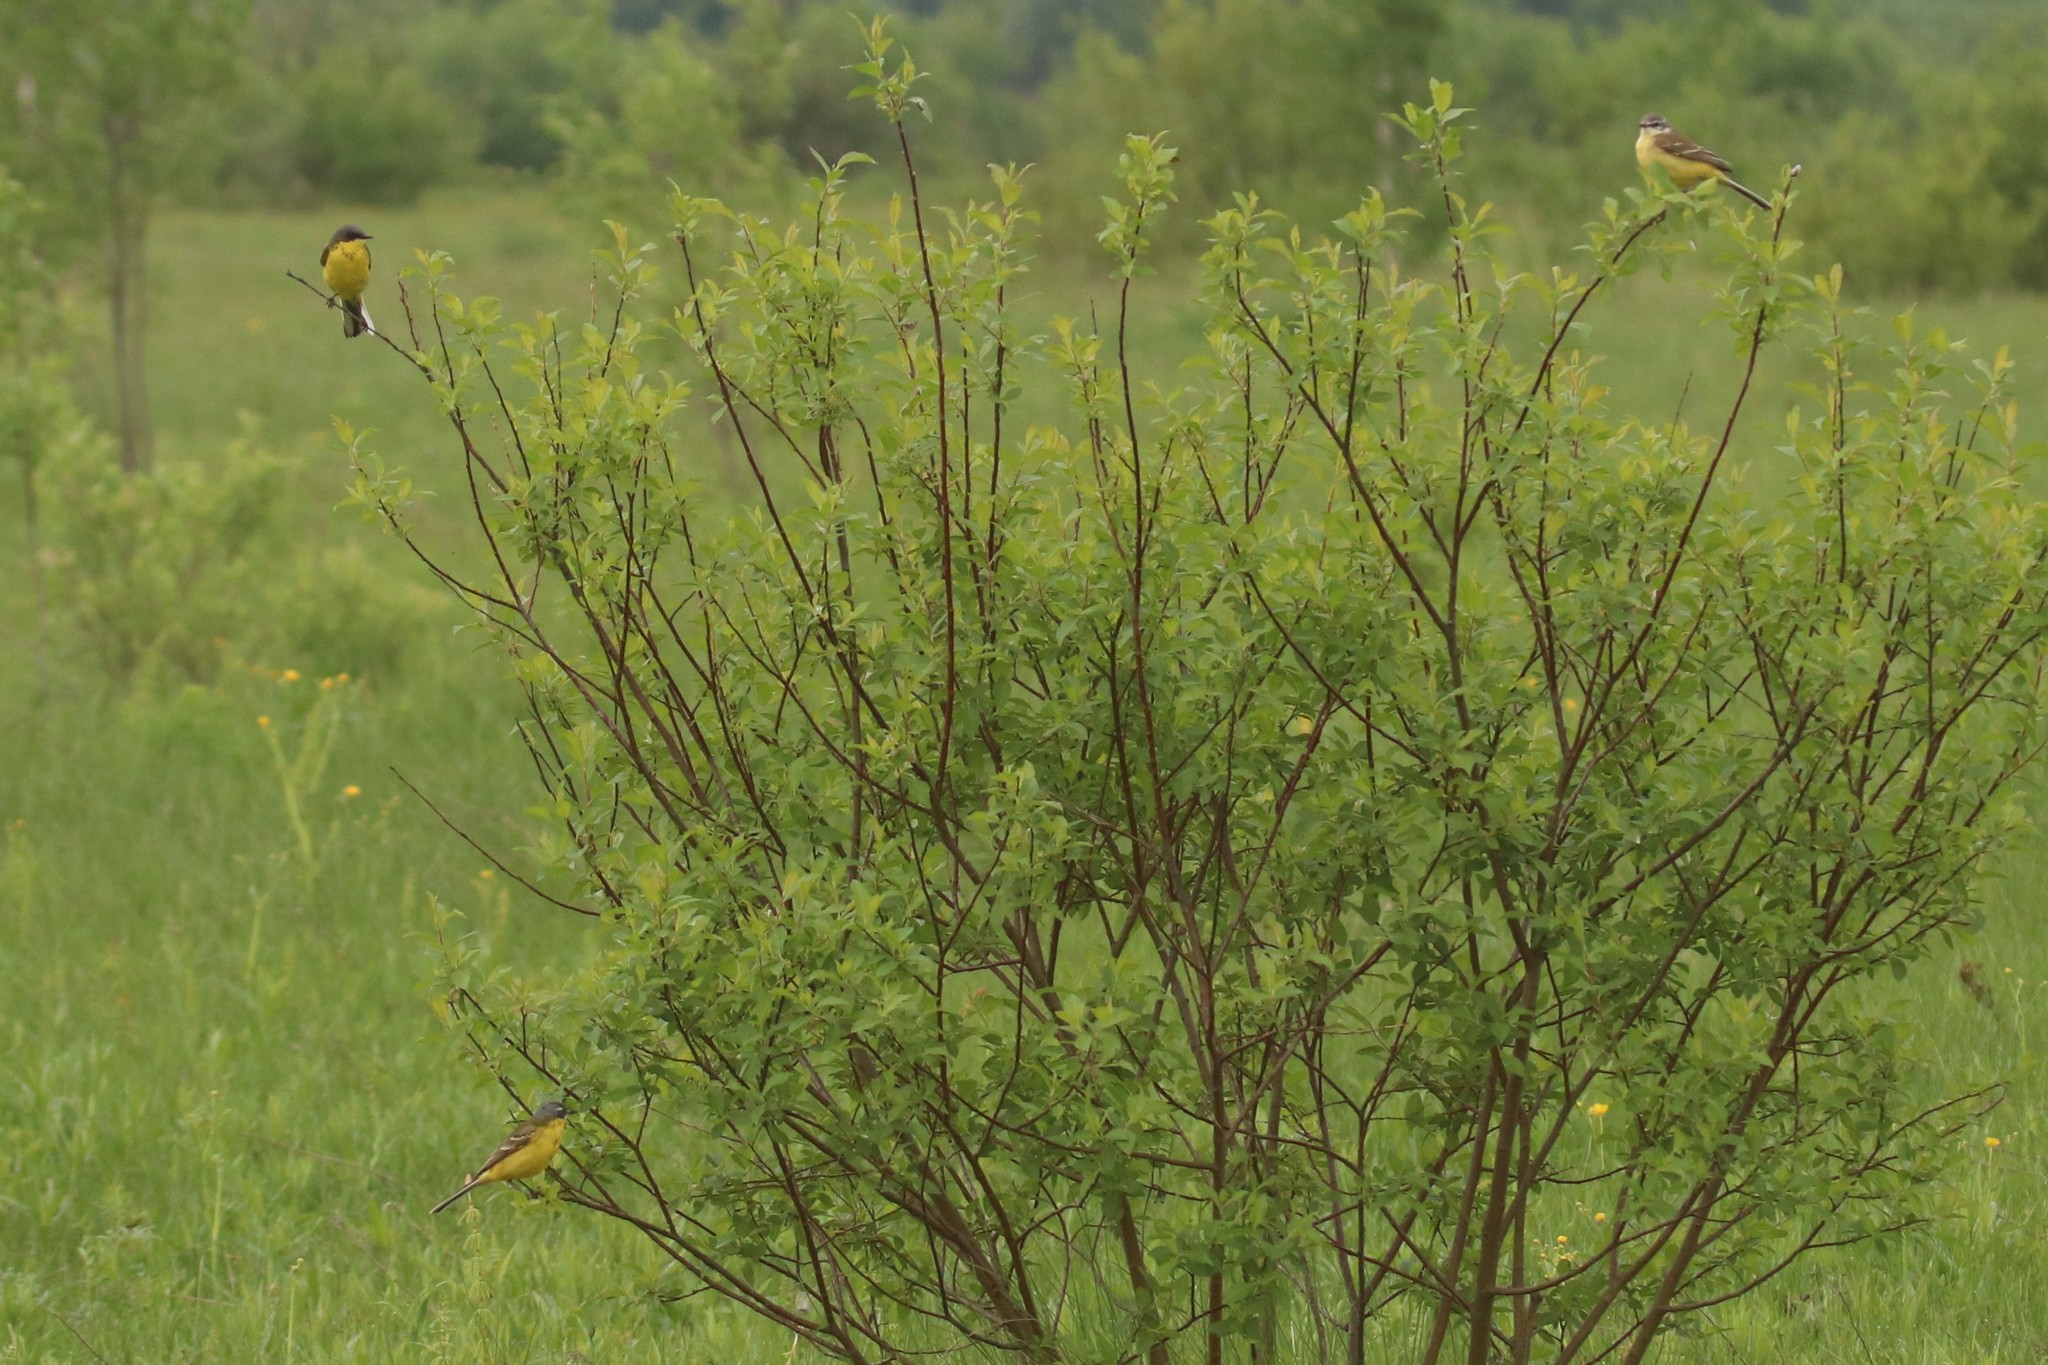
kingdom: Animalia
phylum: Chordata
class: Aves
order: Passeriformes
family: Motacillidae
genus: Motacilla
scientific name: Motacilla flava
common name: Western yellow wagtail
